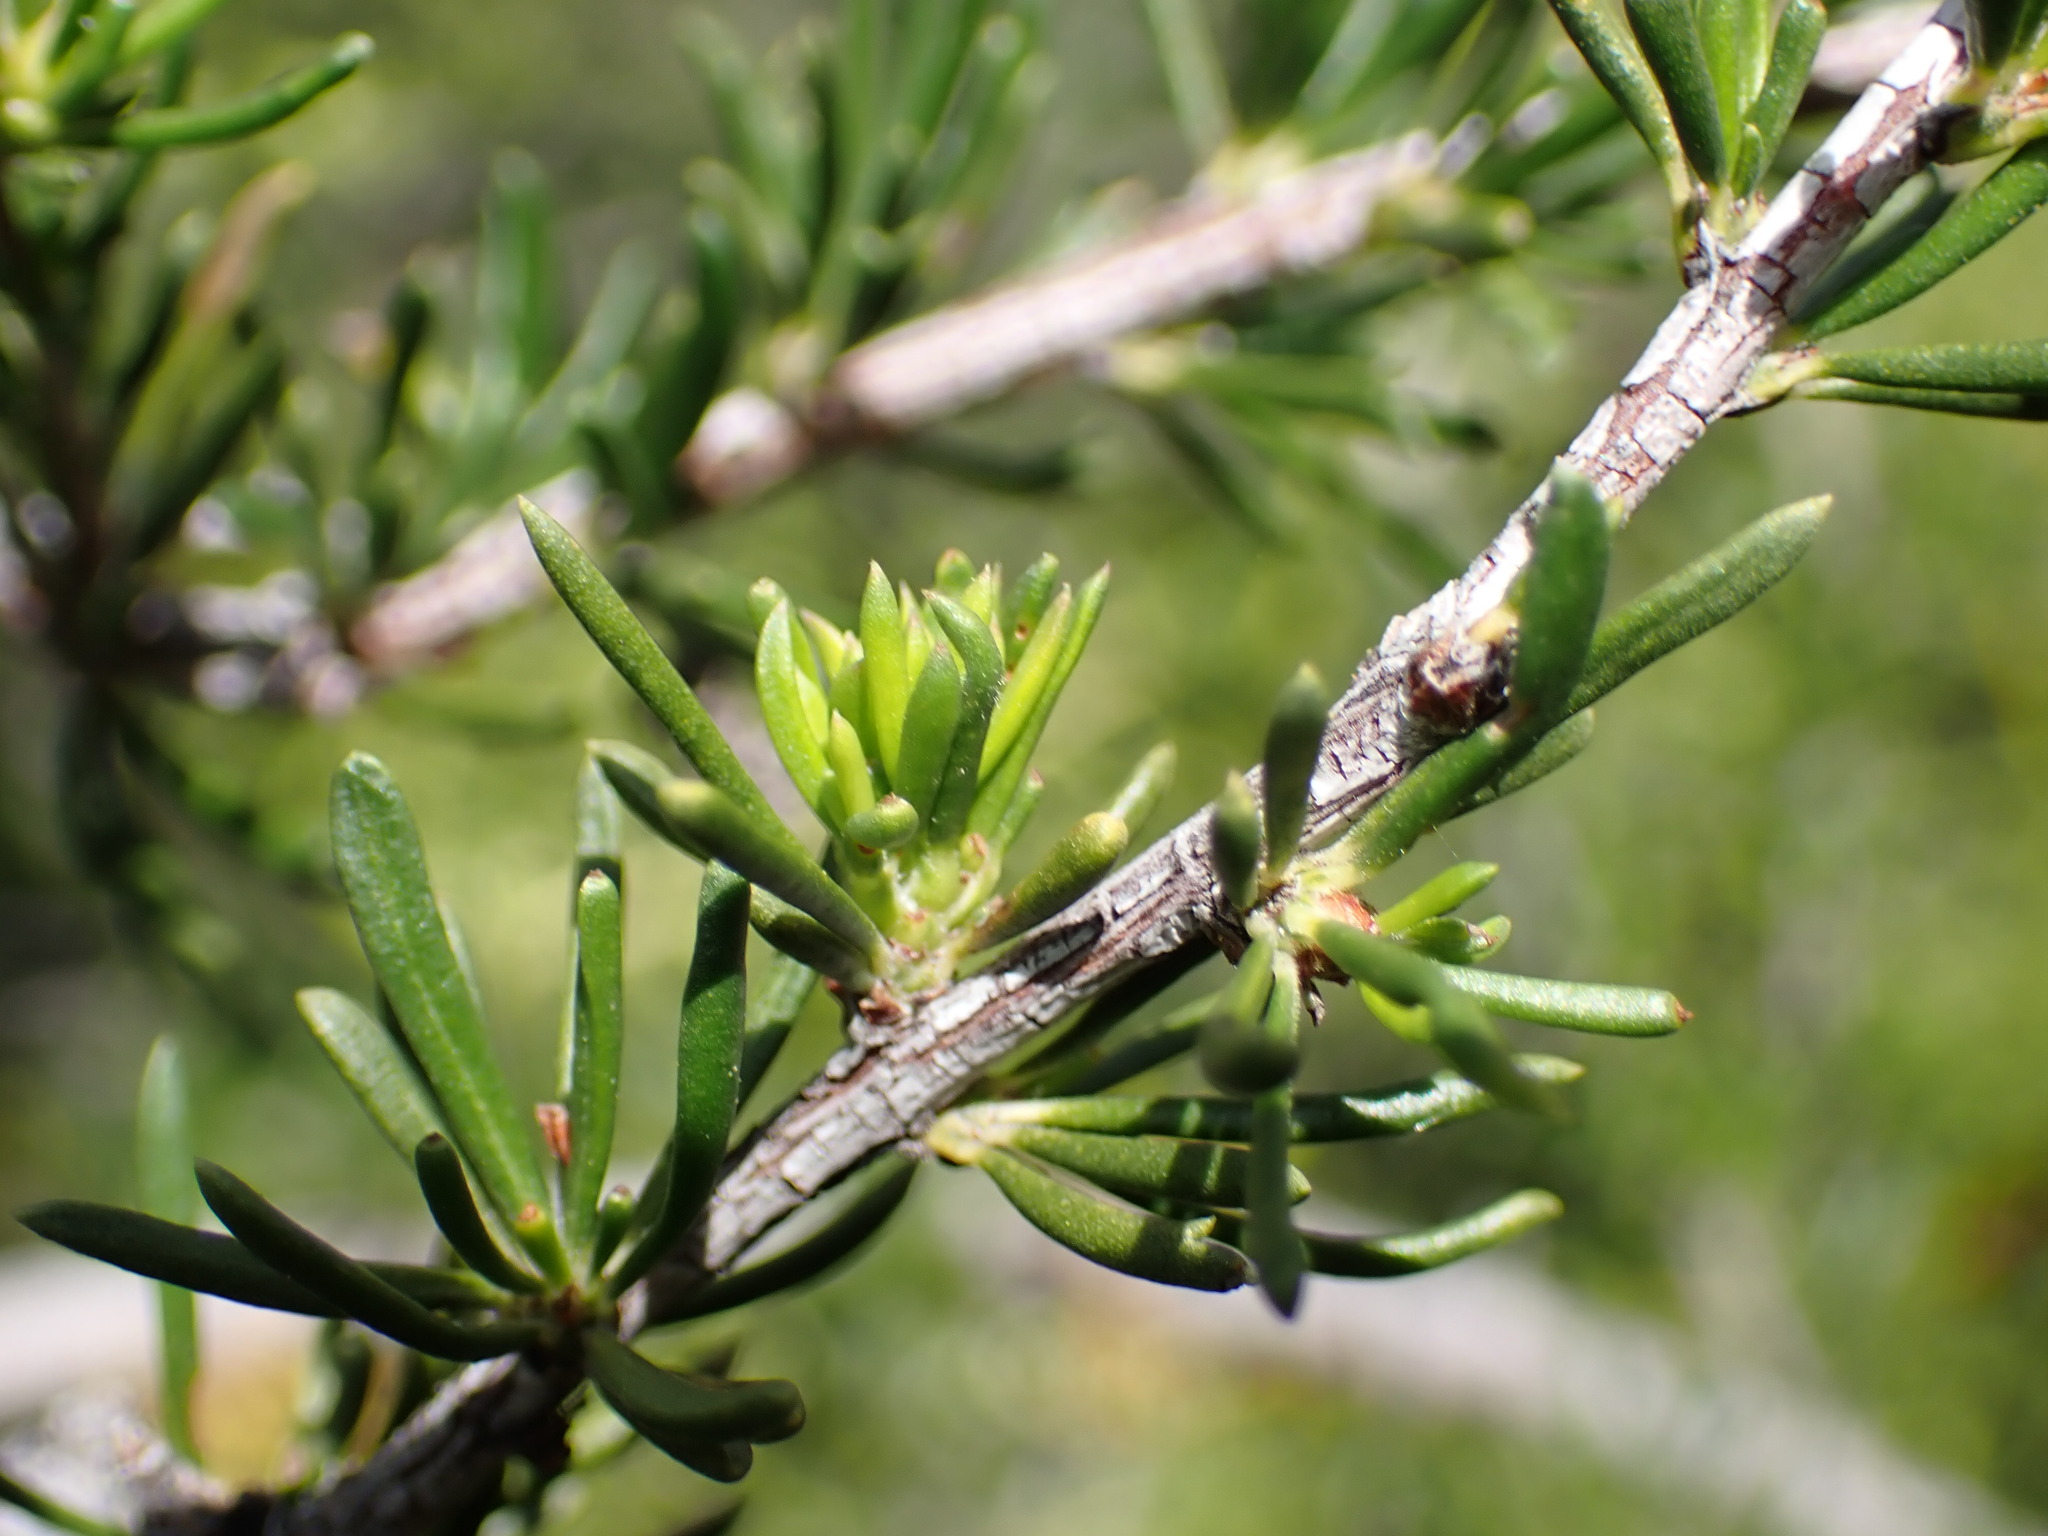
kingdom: Plantae
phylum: Tracheophyta
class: Magnoliopsida
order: Rosales
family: Rosaceae
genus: Adenostoma
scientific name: Adenostoma fasciculatum
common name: Chamise
